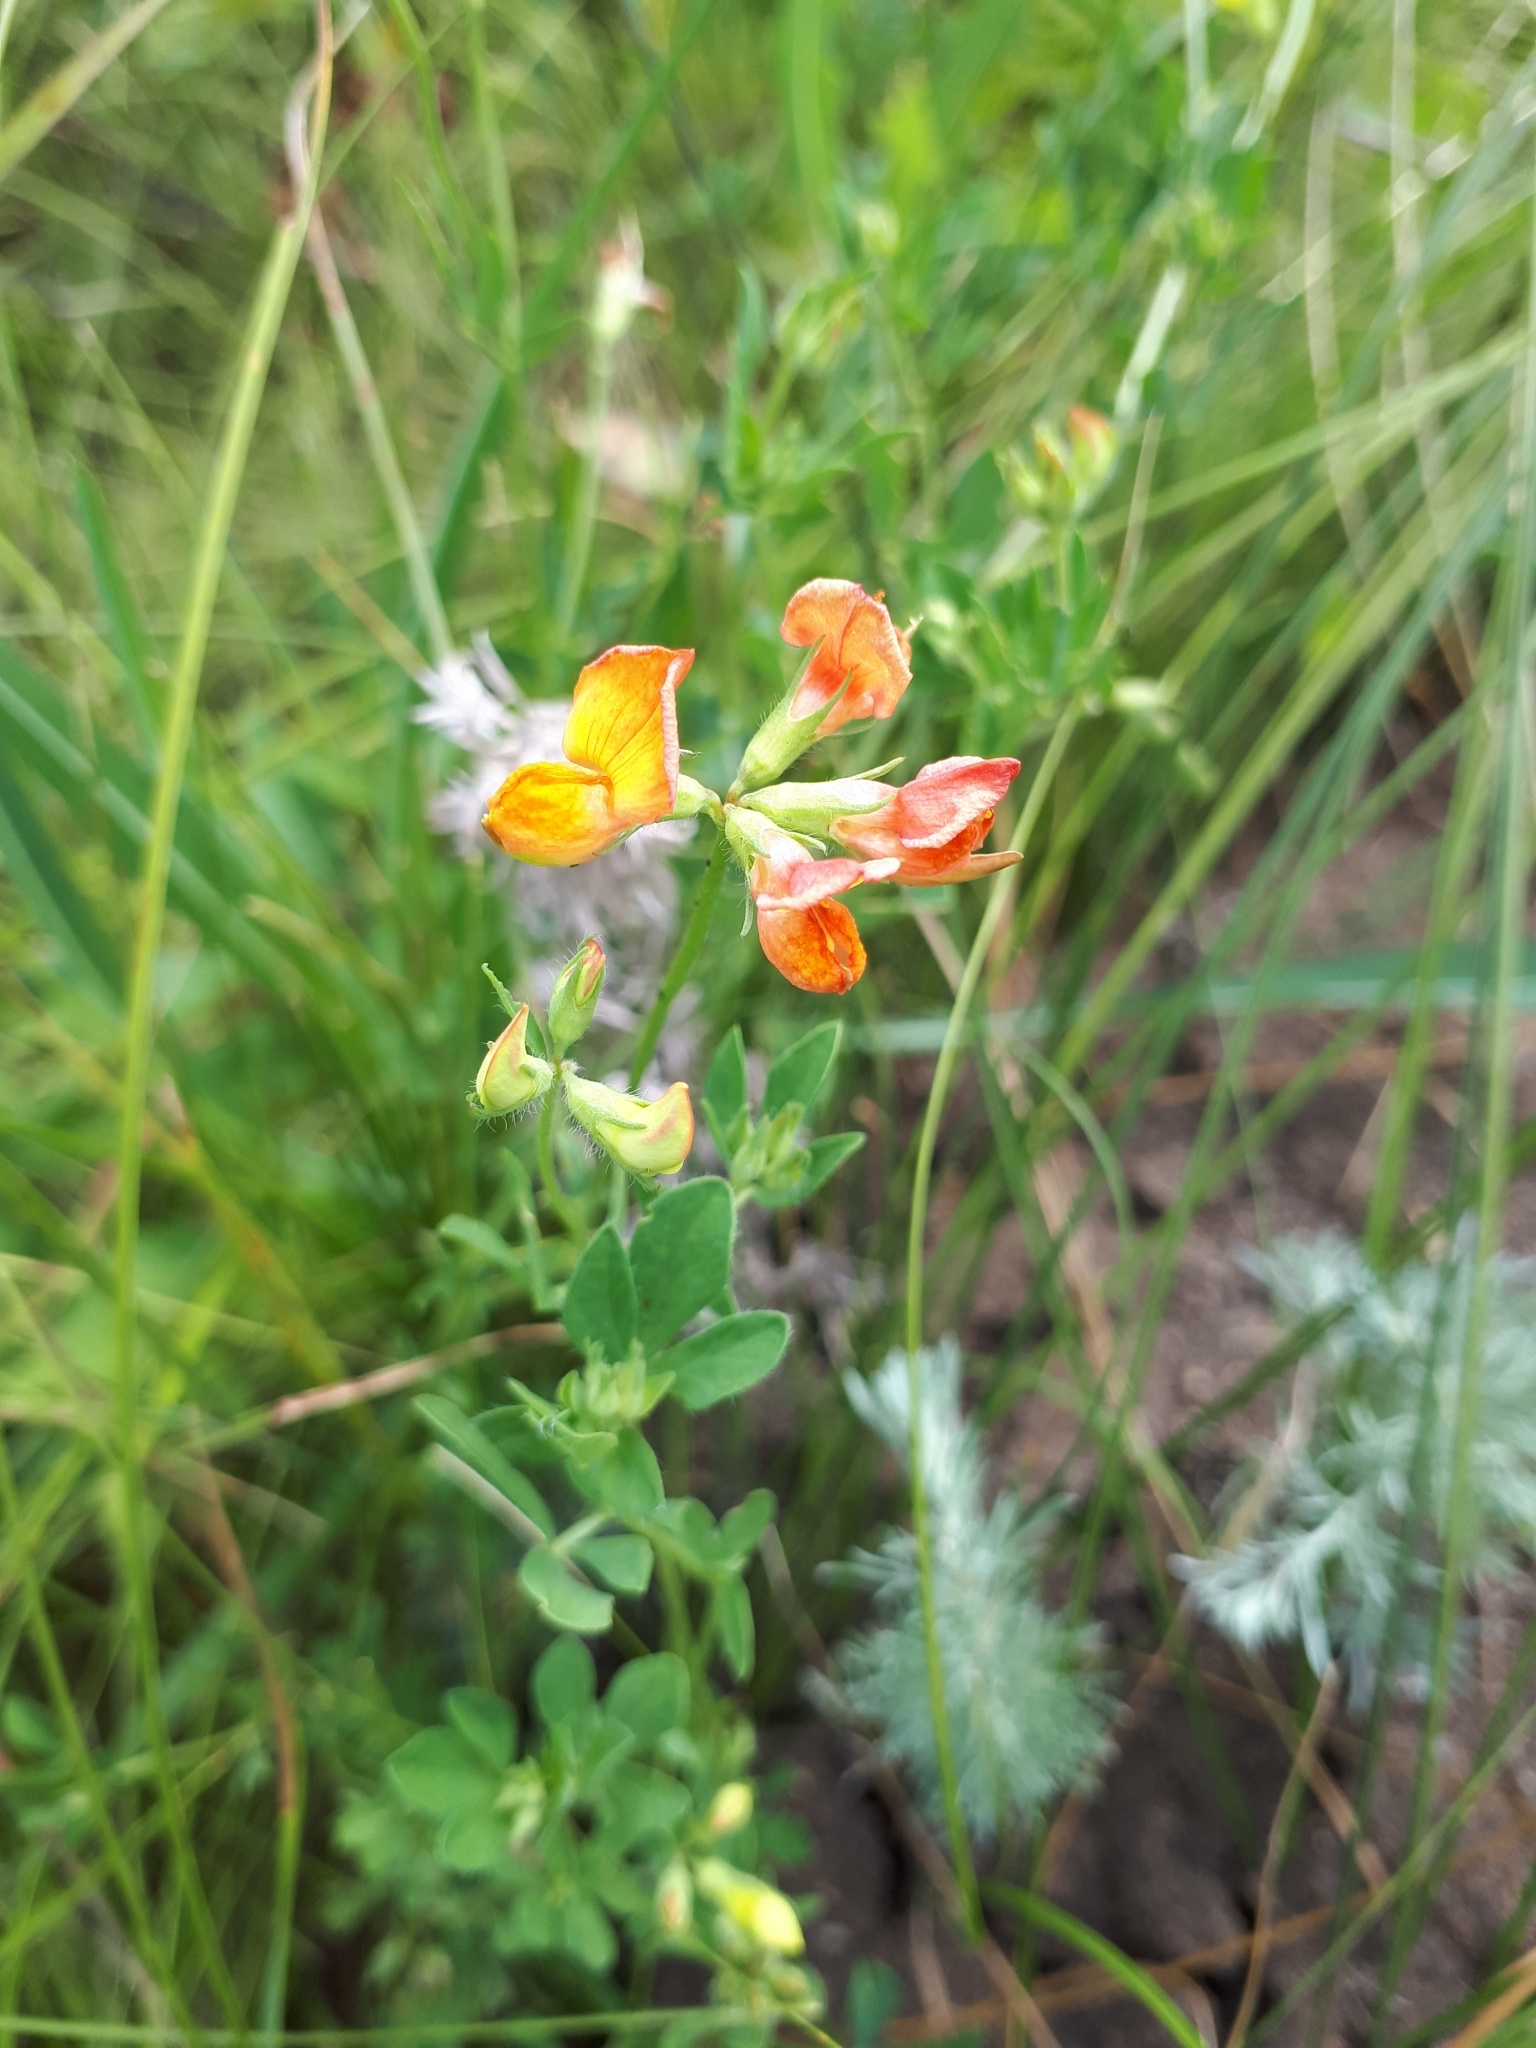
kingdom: Plantae
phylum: Tracheophyta
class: Magnoliopsida
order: Fabales
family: Fabaceae
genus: Lotus
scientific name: Lotus corniculatus
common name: Common bird's-foot-trefoil
